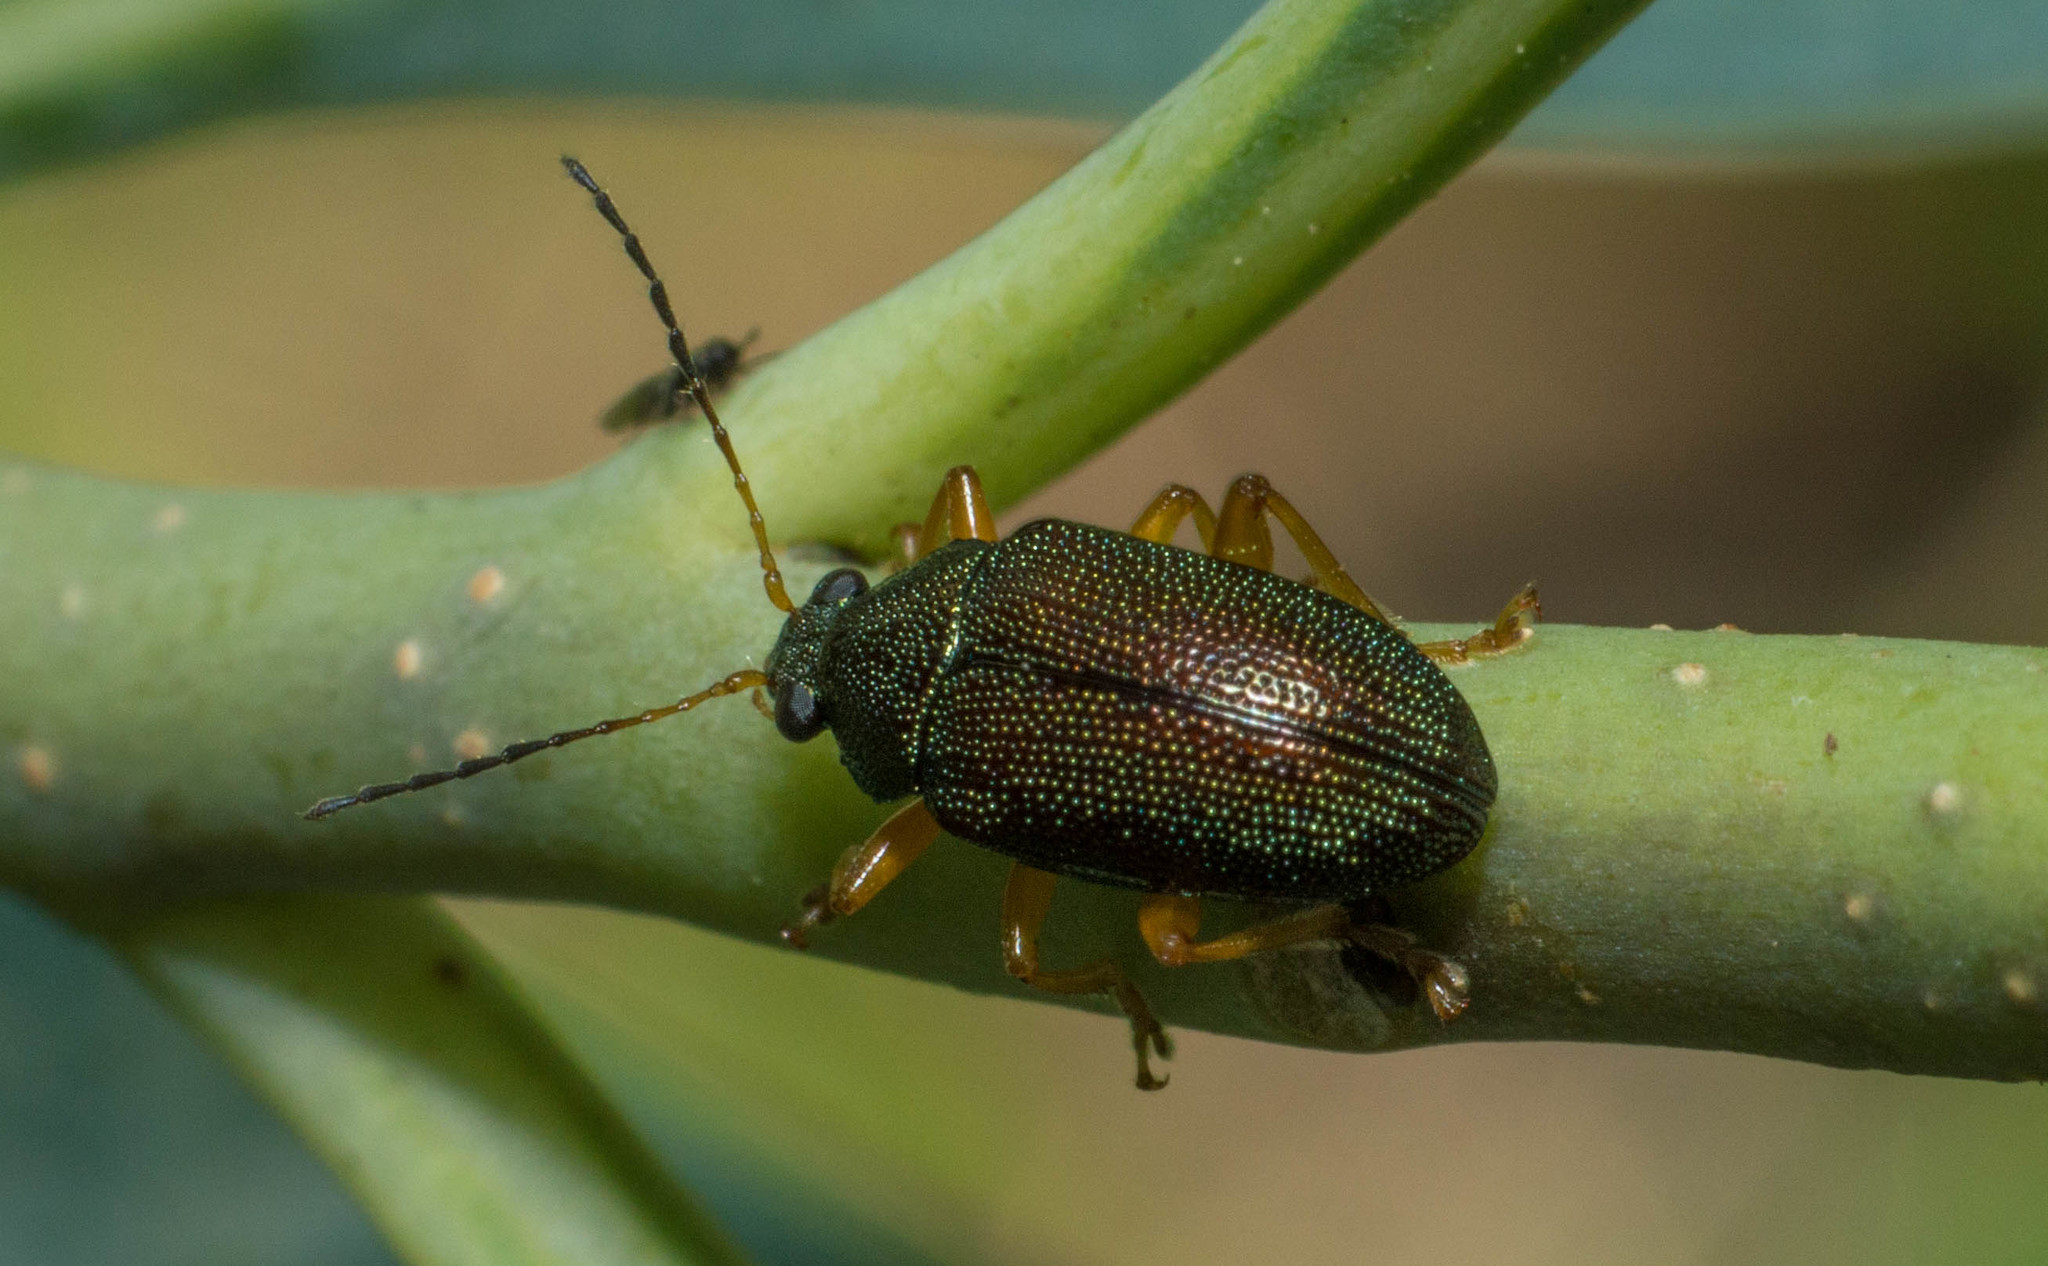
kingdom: Animalia
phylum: Arthropoda
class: Insecta
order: Coleoptera
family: Chrysomelidae
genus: Colaspis
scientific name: Colaspis
